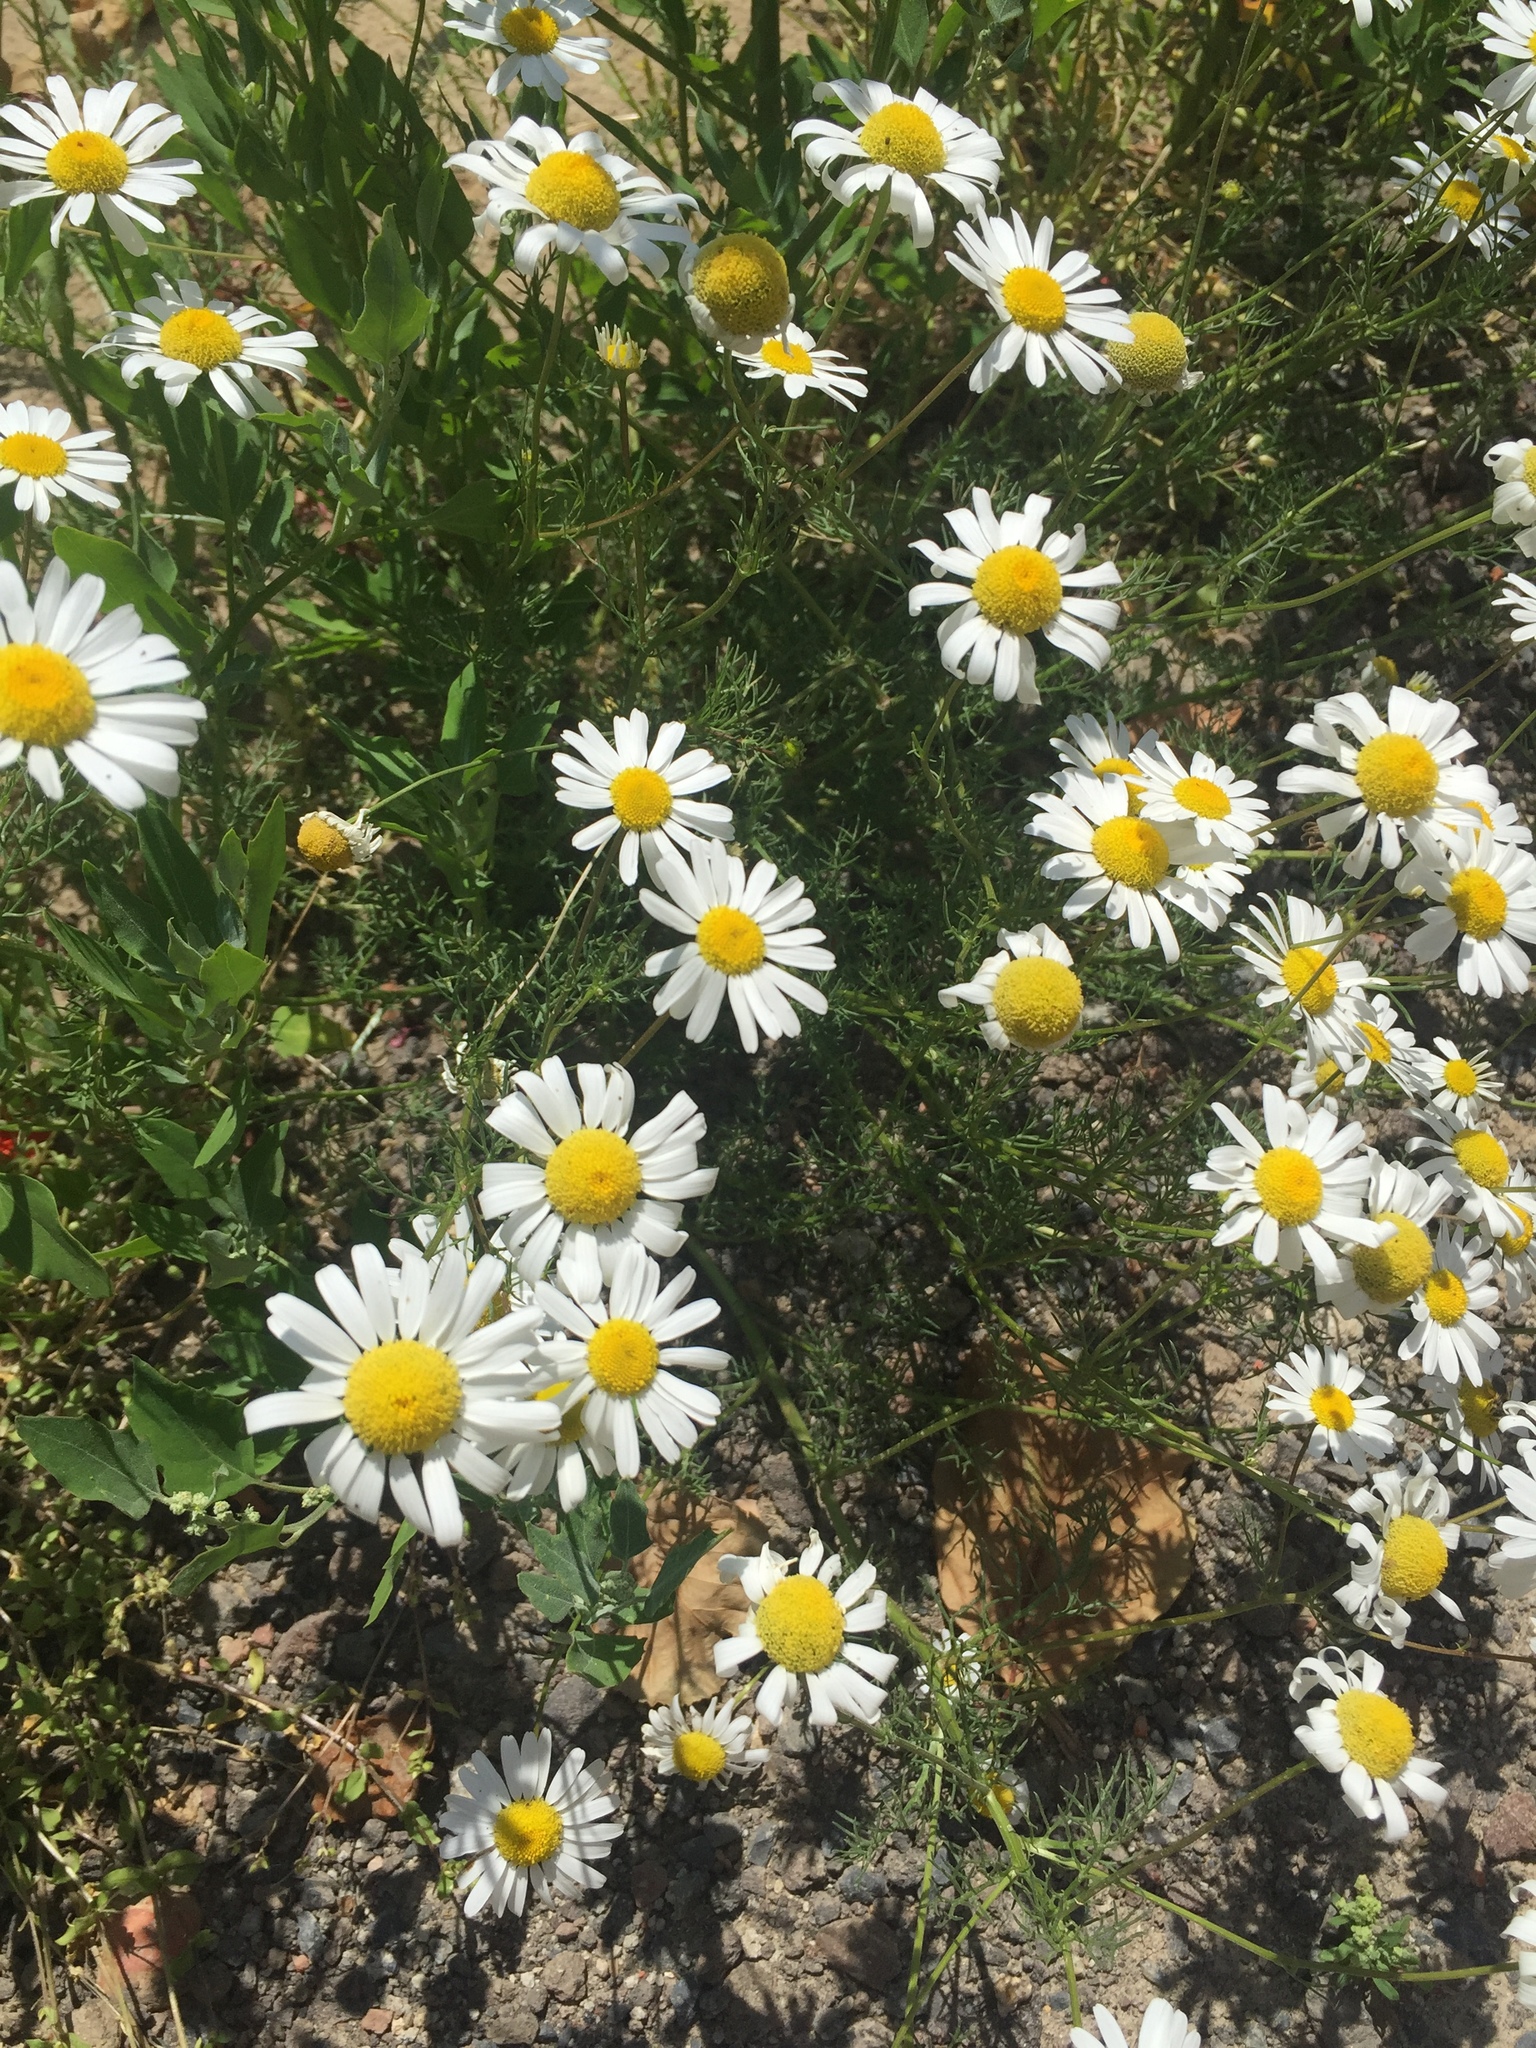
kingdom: Plantae
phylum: Tracheophyta
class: Magnoliopsida
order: Asterales
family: Asteraceae
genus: Matricaria
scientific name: Matricaria chamomilla
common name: Scented mayweed
